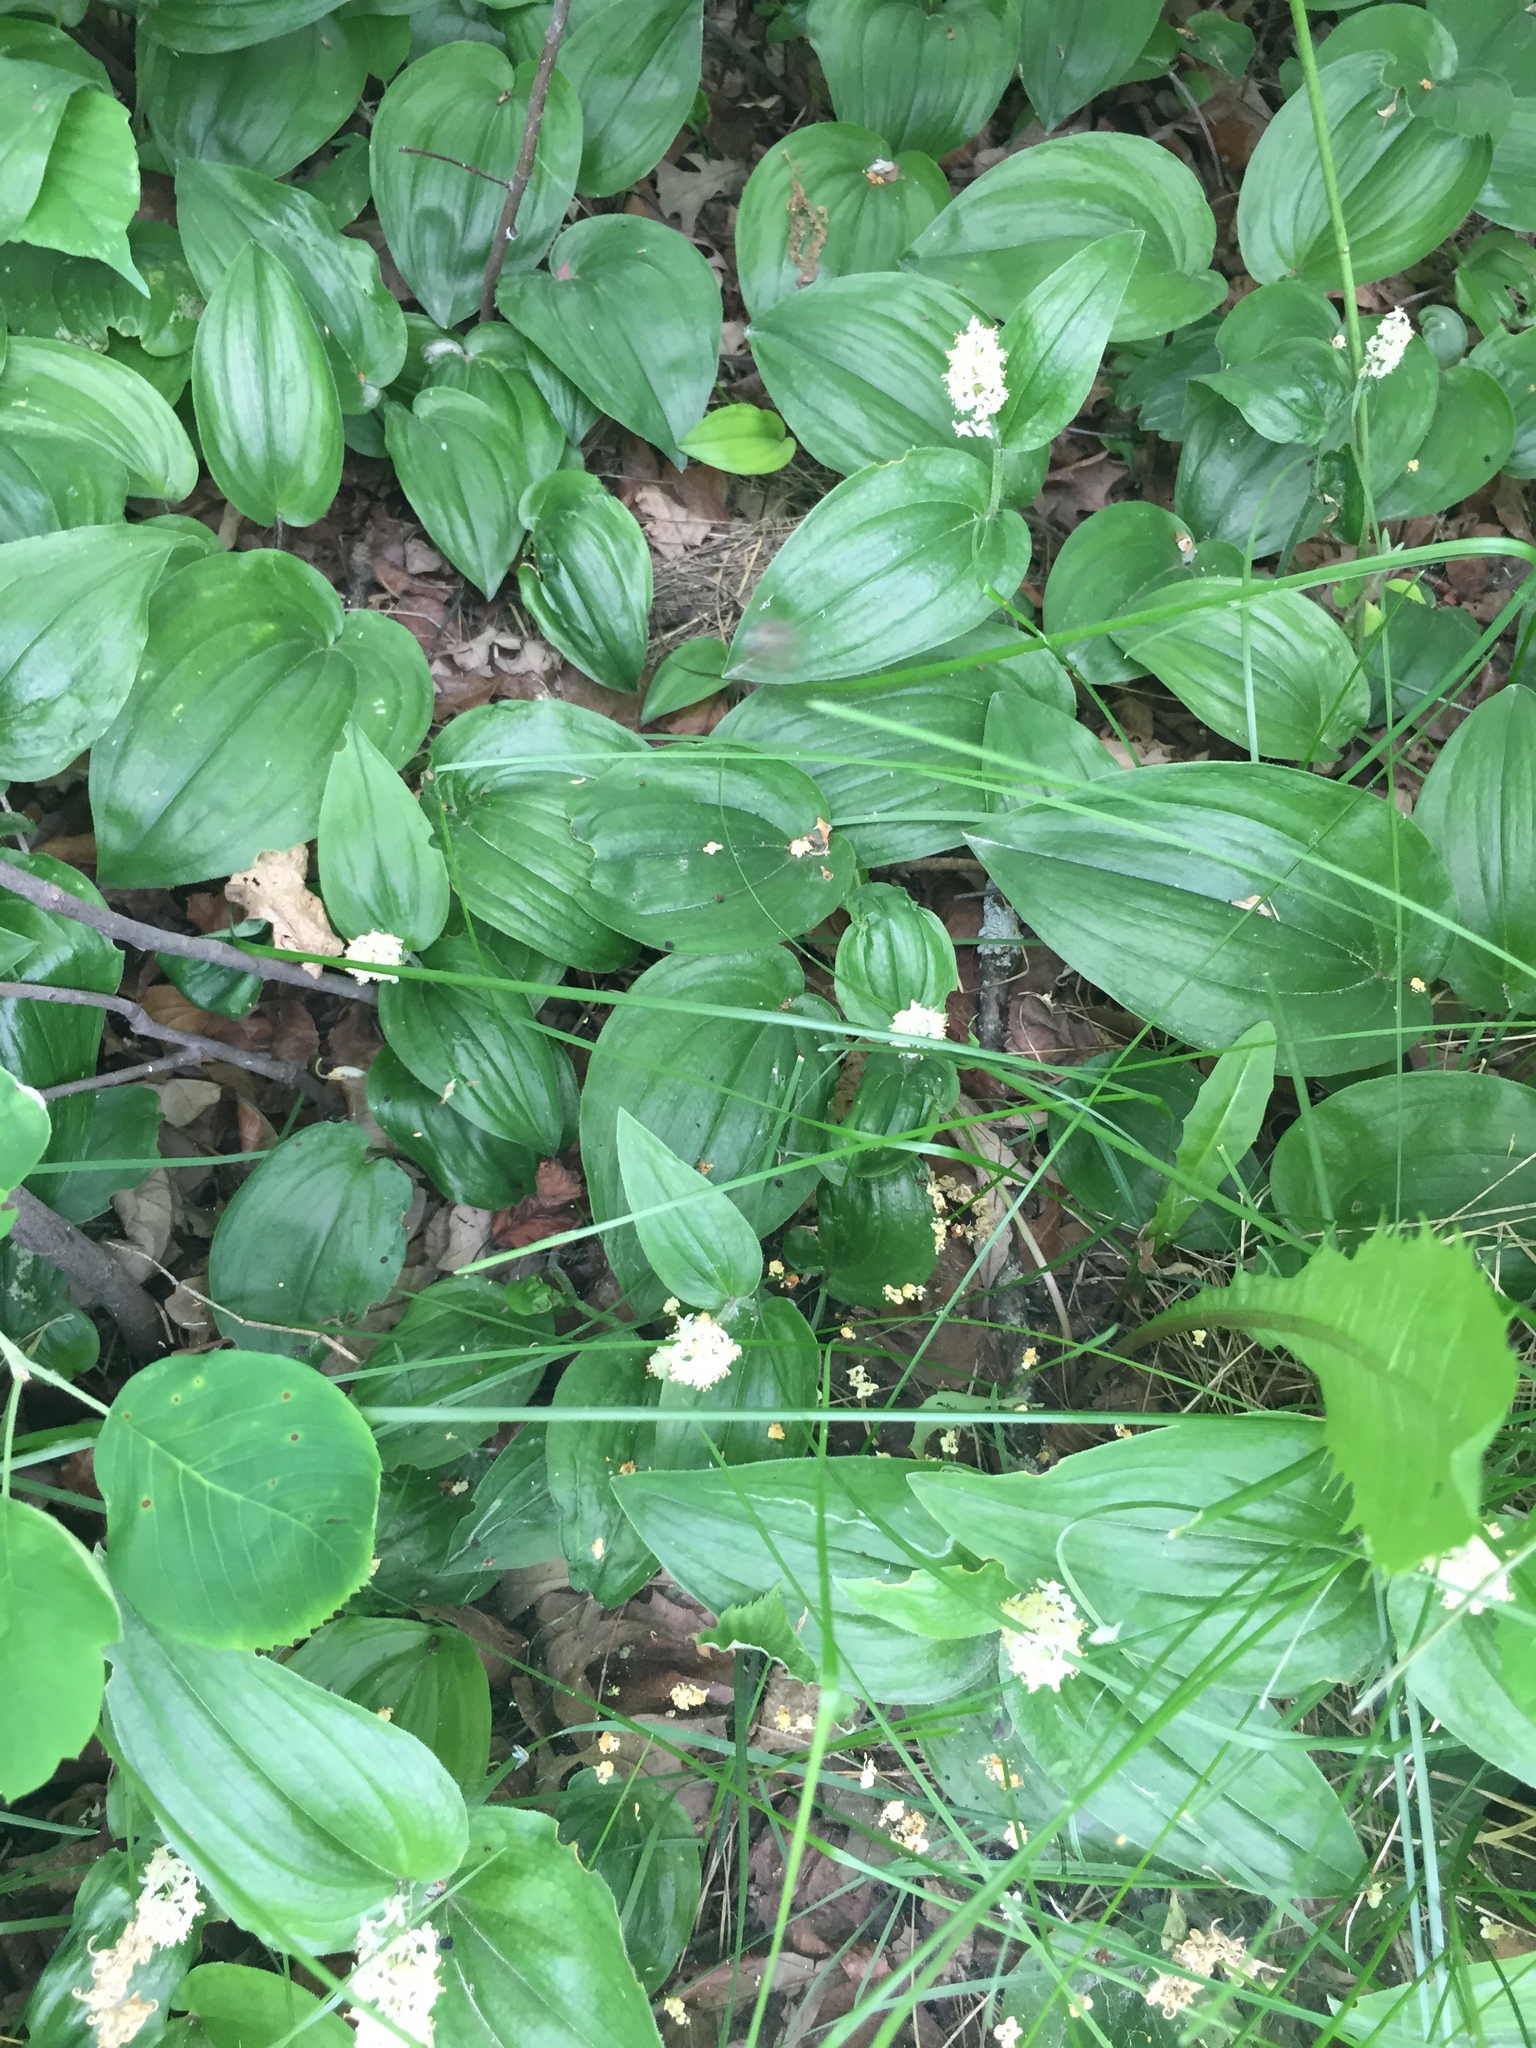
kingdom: Plantae
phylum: Tracheophyta
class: Liliopsida
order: Asparagales
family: Asparagaceae
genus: Maianthemum
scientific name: Maianthemum canadense
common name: False lily-of-the-valley
